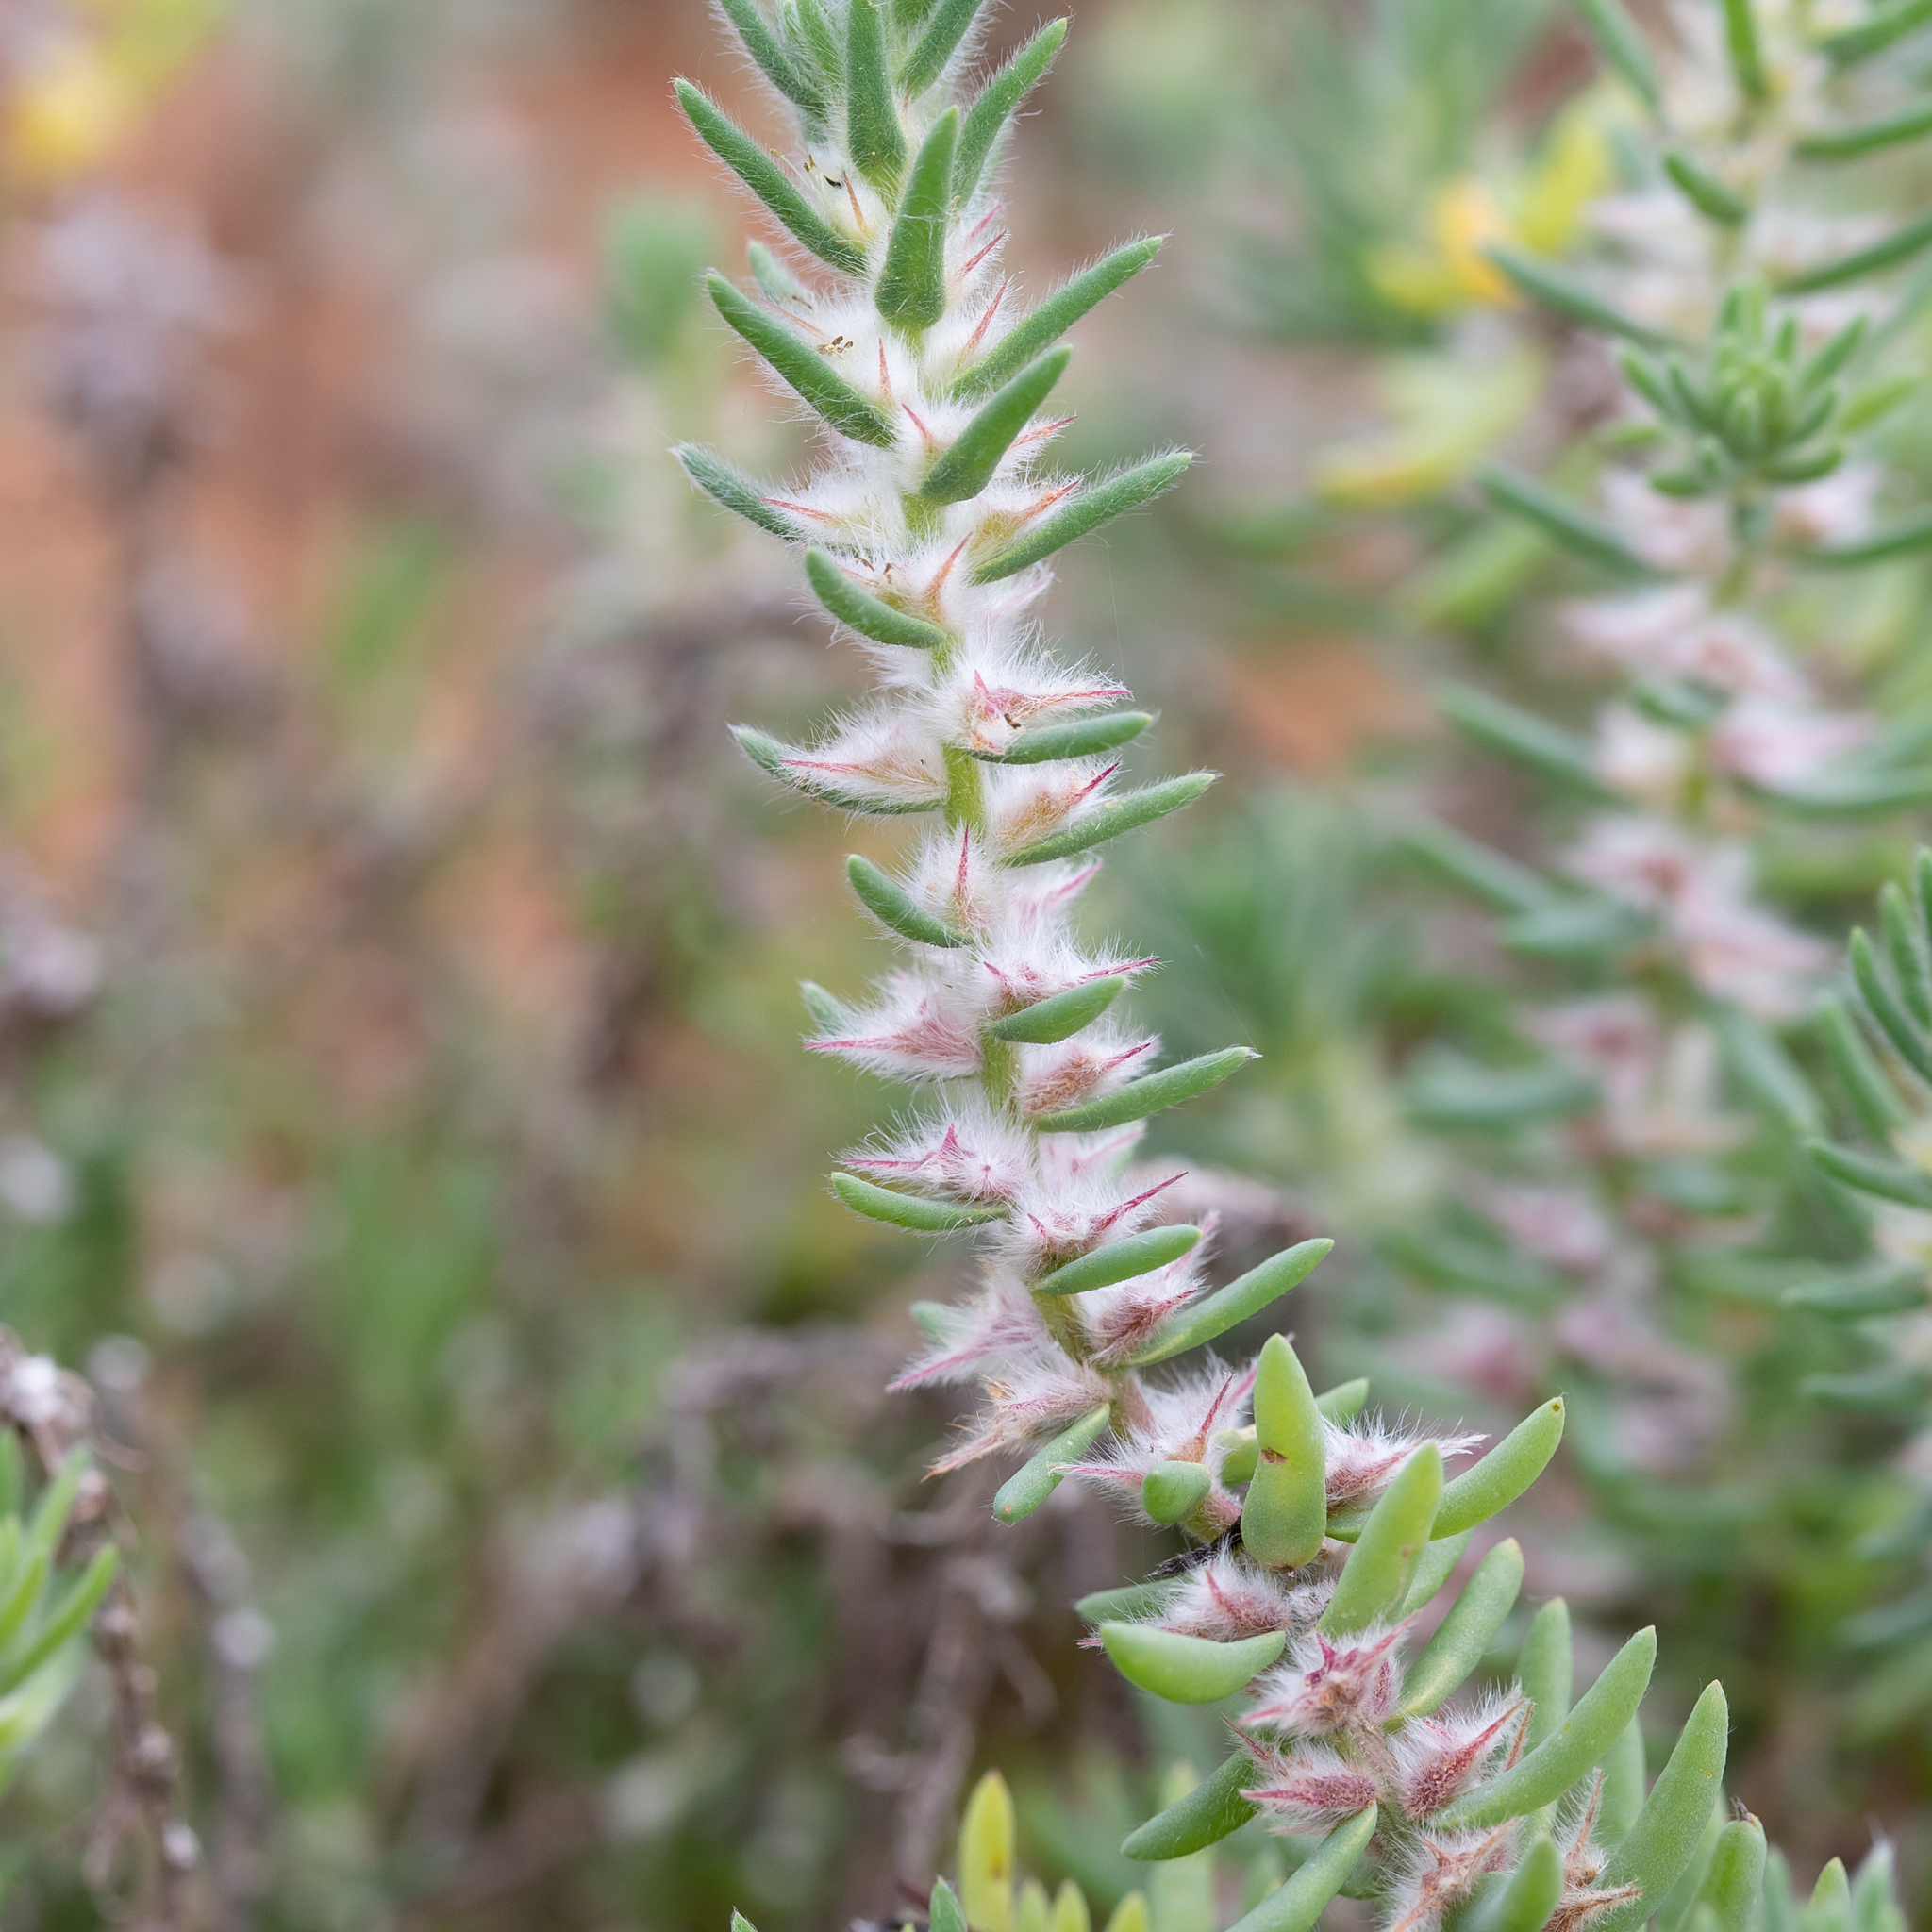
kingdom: Plantae
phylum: Tracheophyta
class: Magnoliopsida
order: Caryophyllales
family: Amaranthaceae
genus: Sclerolaena
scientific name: Sclerolaena lanicuspis
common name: Copperbur
